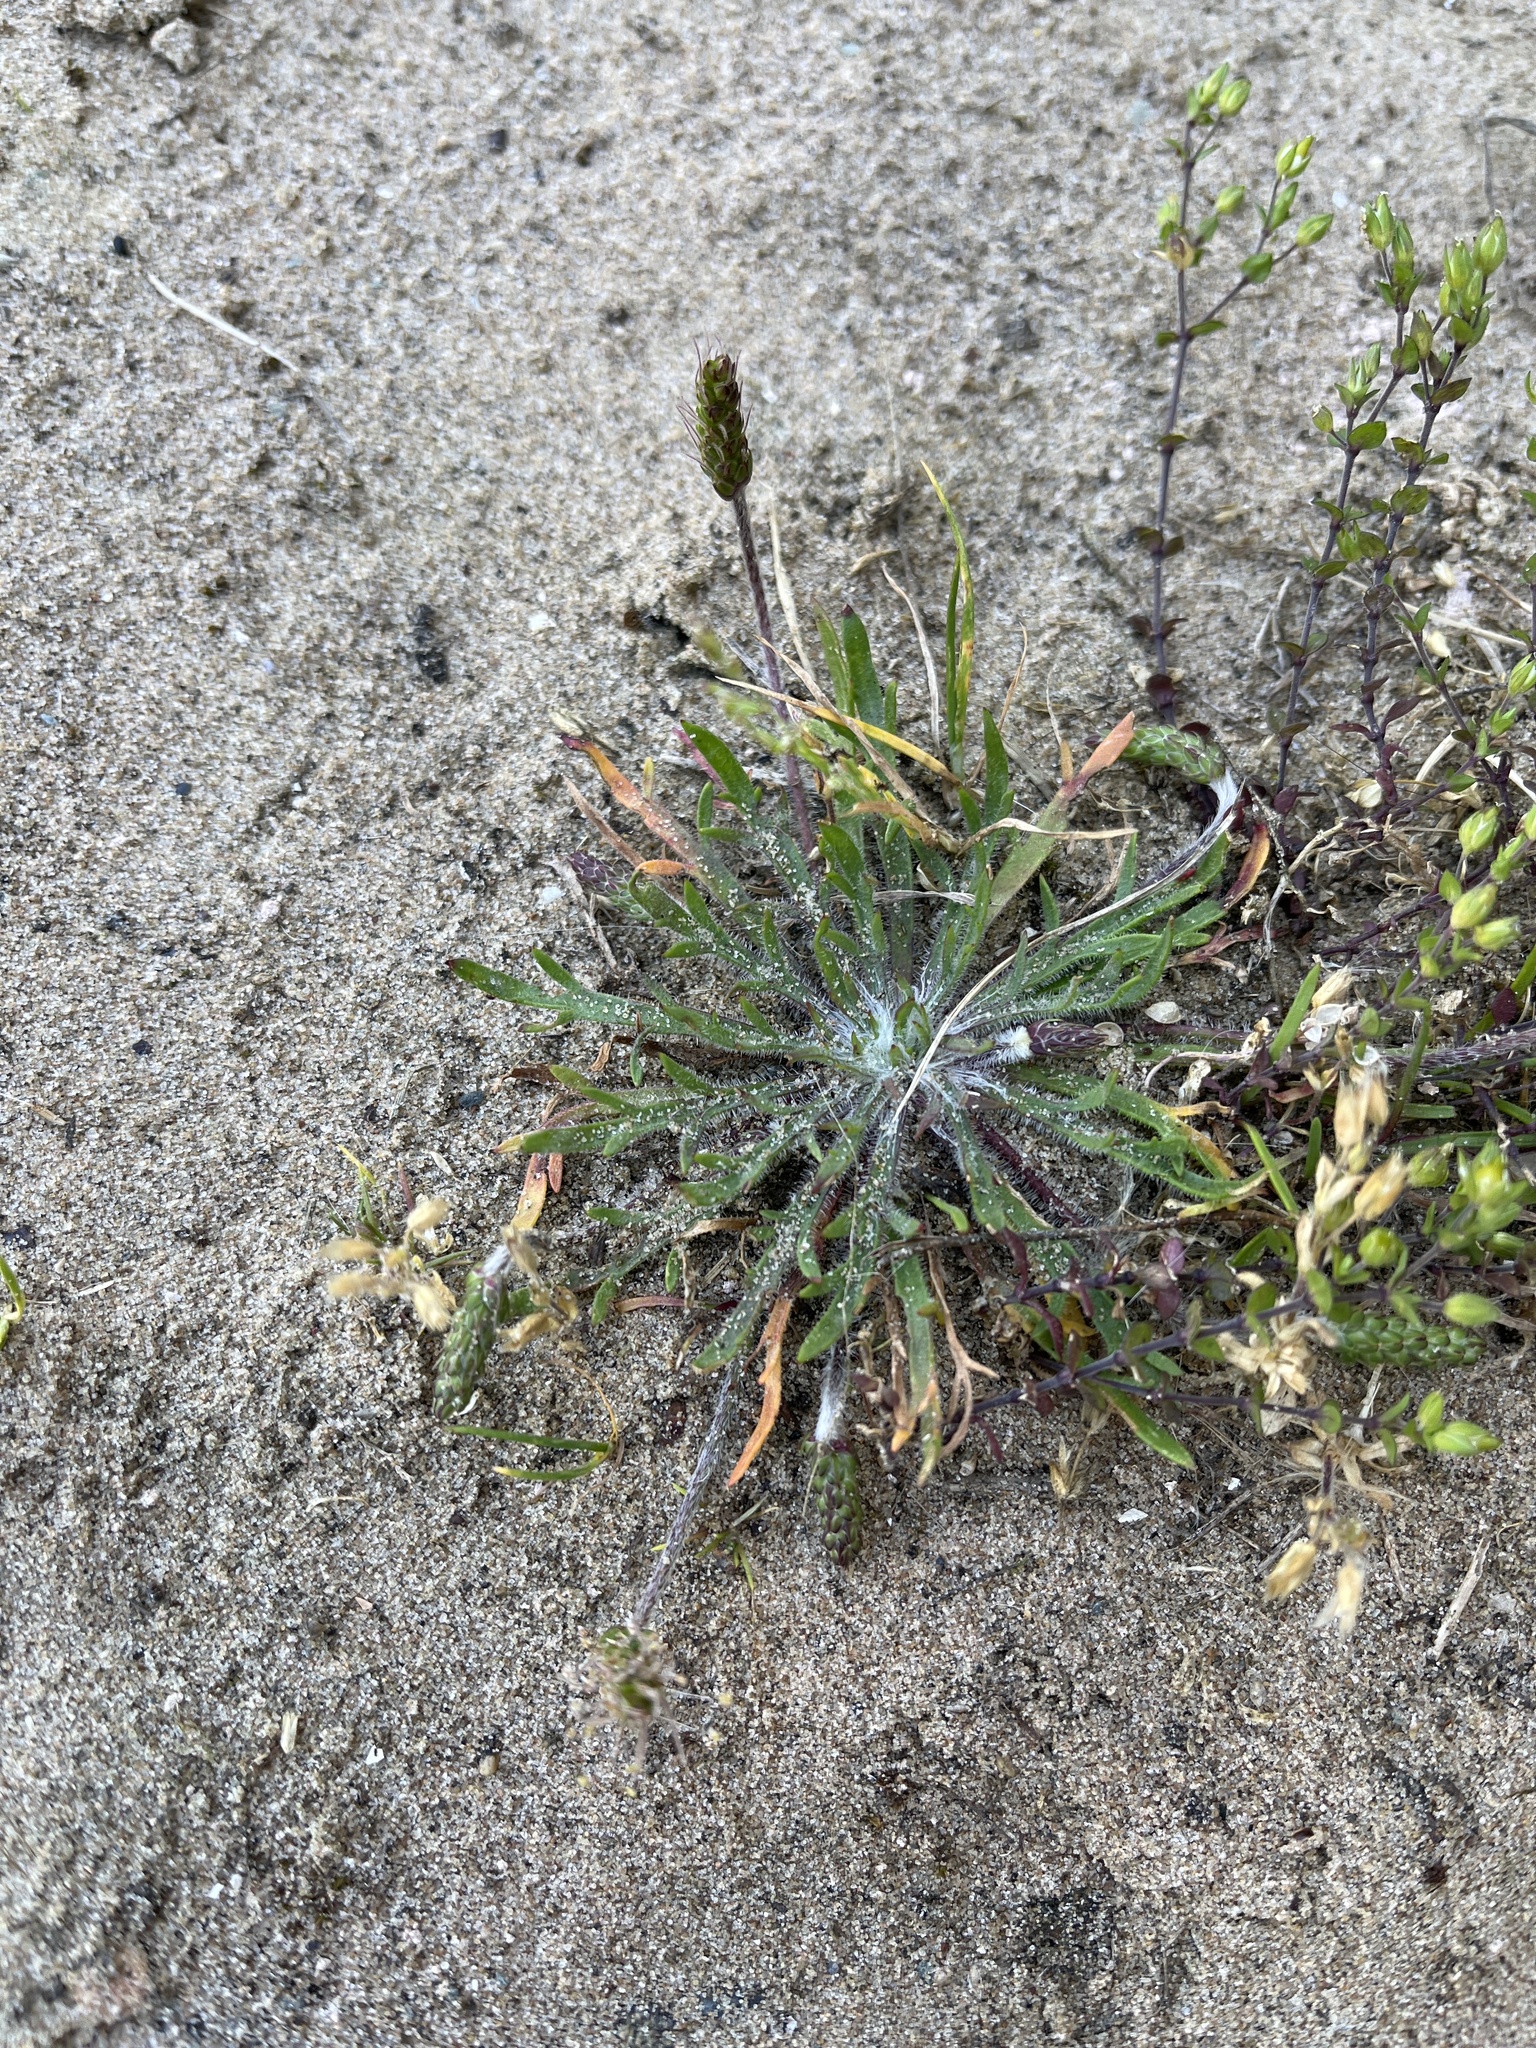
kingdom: Plantae
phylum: Tracheophyta
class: Magnoliopsida
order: Lamiales
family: Plantaginaceae
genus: Plantago
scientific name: Plantago coronopus
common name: Buck's-horn plantain
